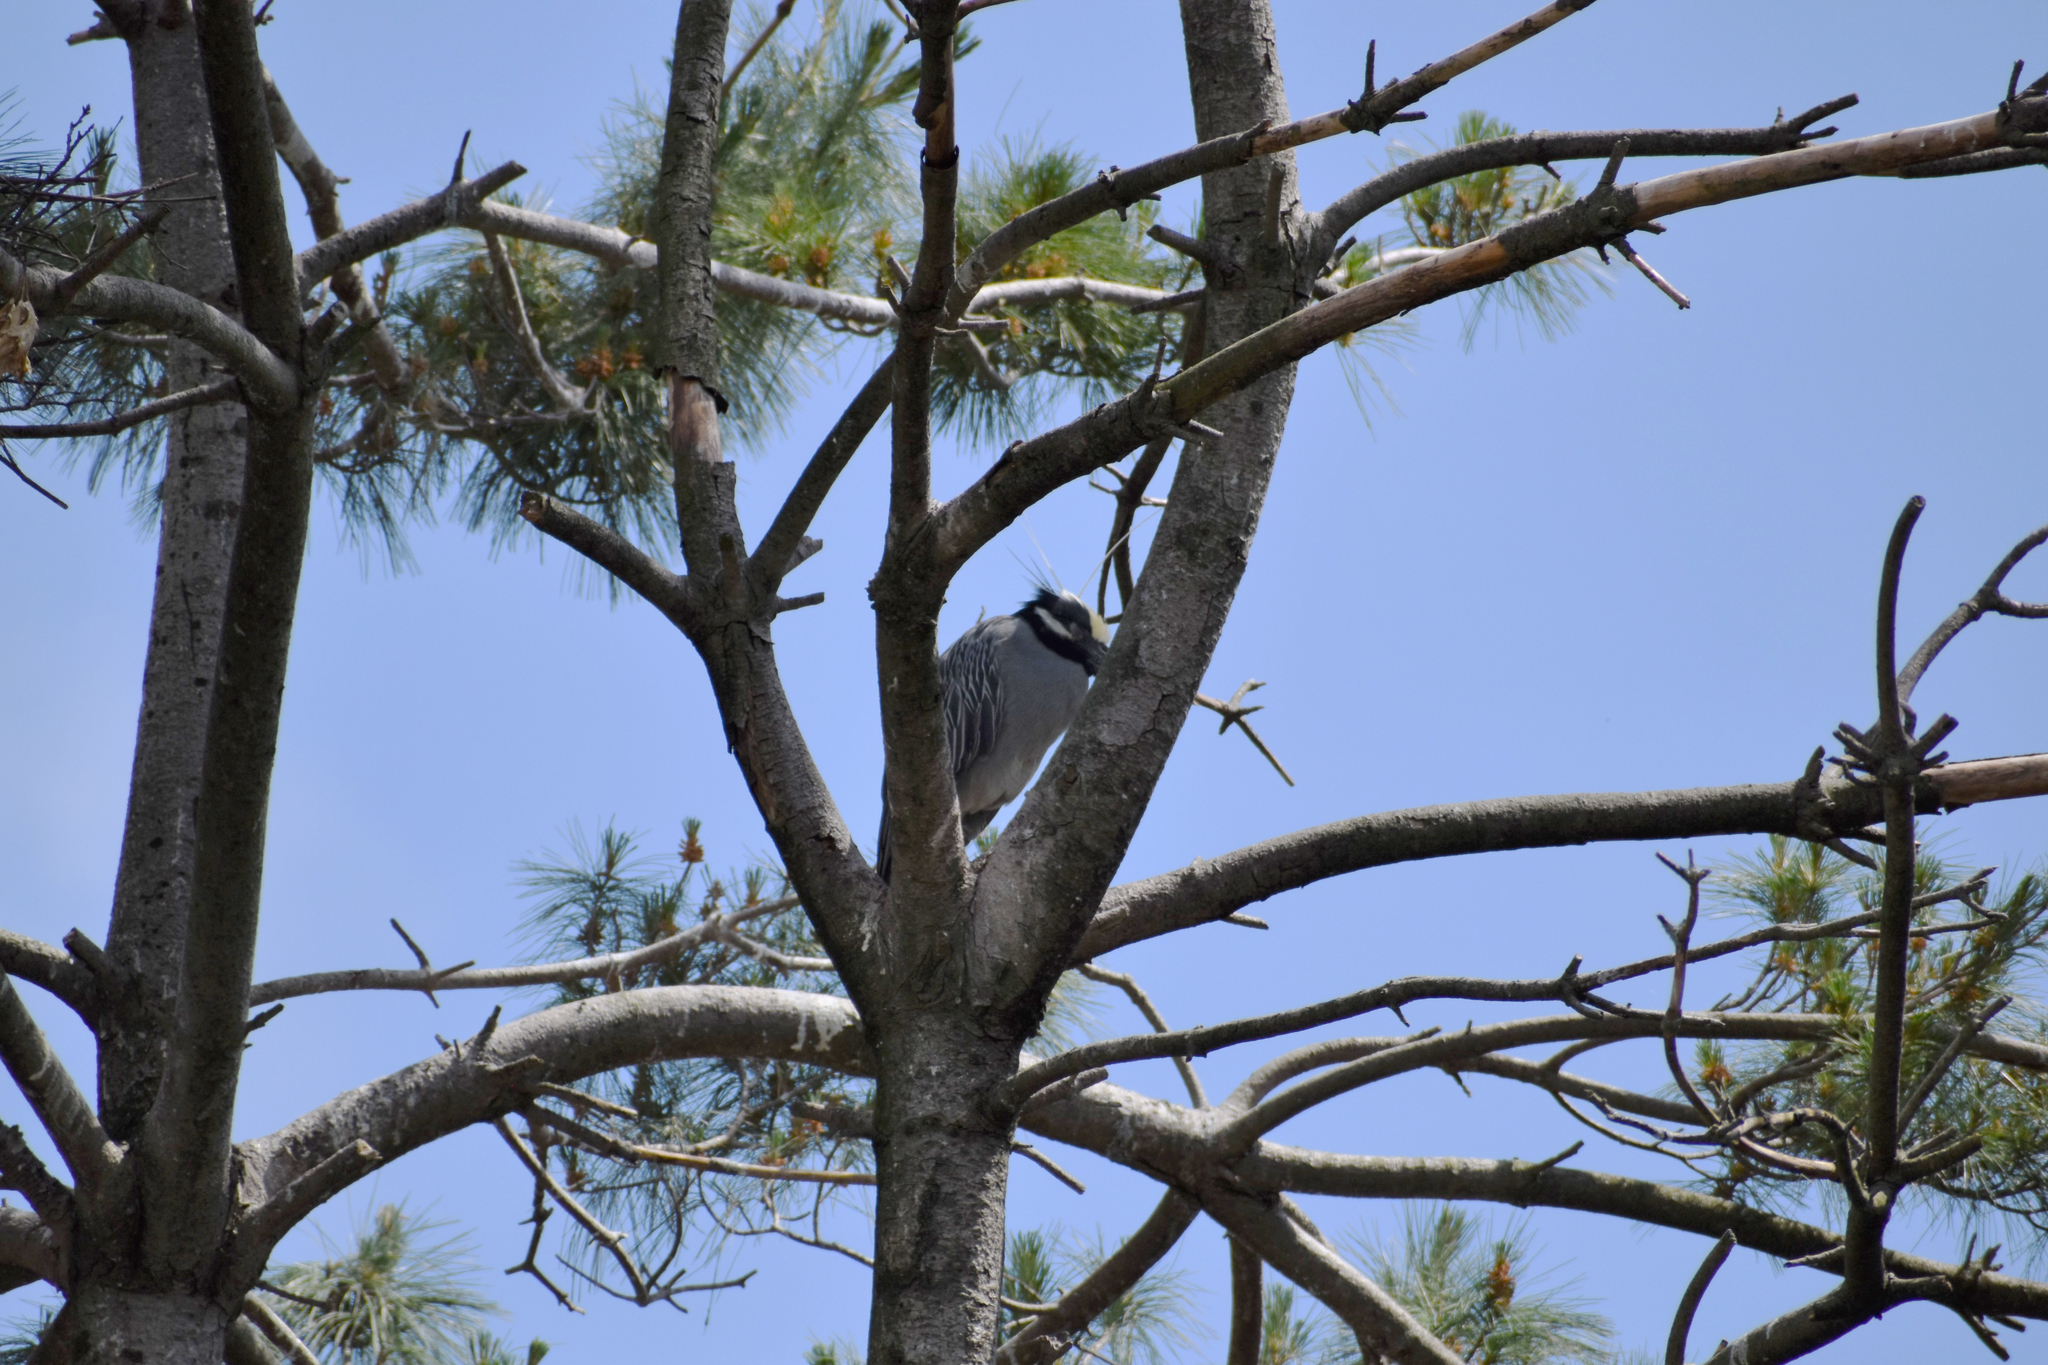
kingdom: Animalia
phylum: Chordata
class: Aves
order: Pelecaniformes
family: Ardeidae
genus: Nyctanassa
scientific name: Nyctanassa violacea
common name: Yellow-crowned night heron
